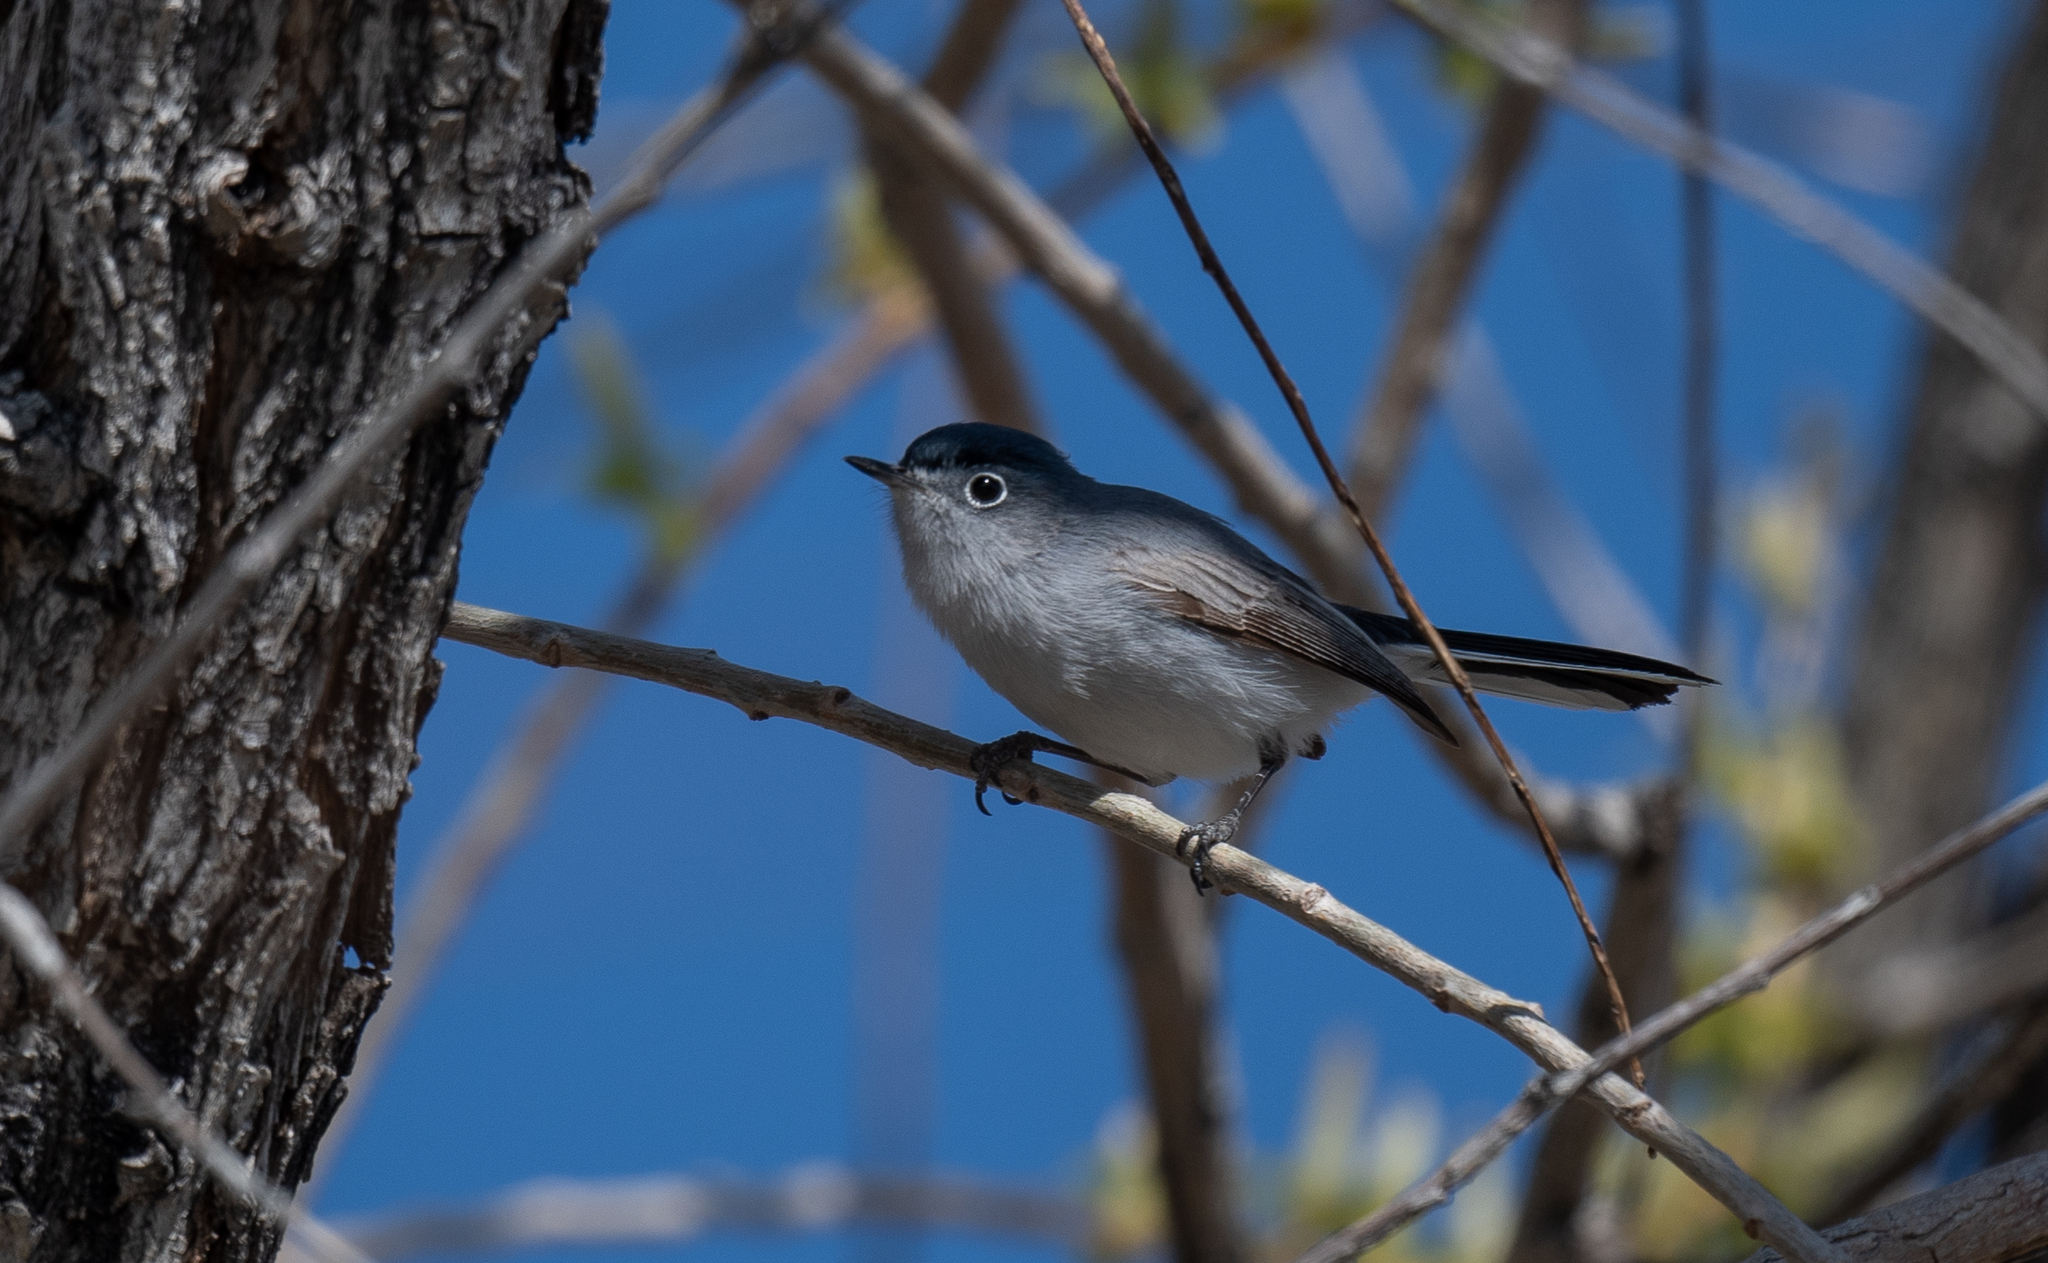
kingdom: Animalia
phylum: Chordata
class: Aves
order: Passeriformes
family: Polioptilidae
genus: Polioptila
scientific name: Polioptila caerulea
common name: Blue-gray gnatcatcher
